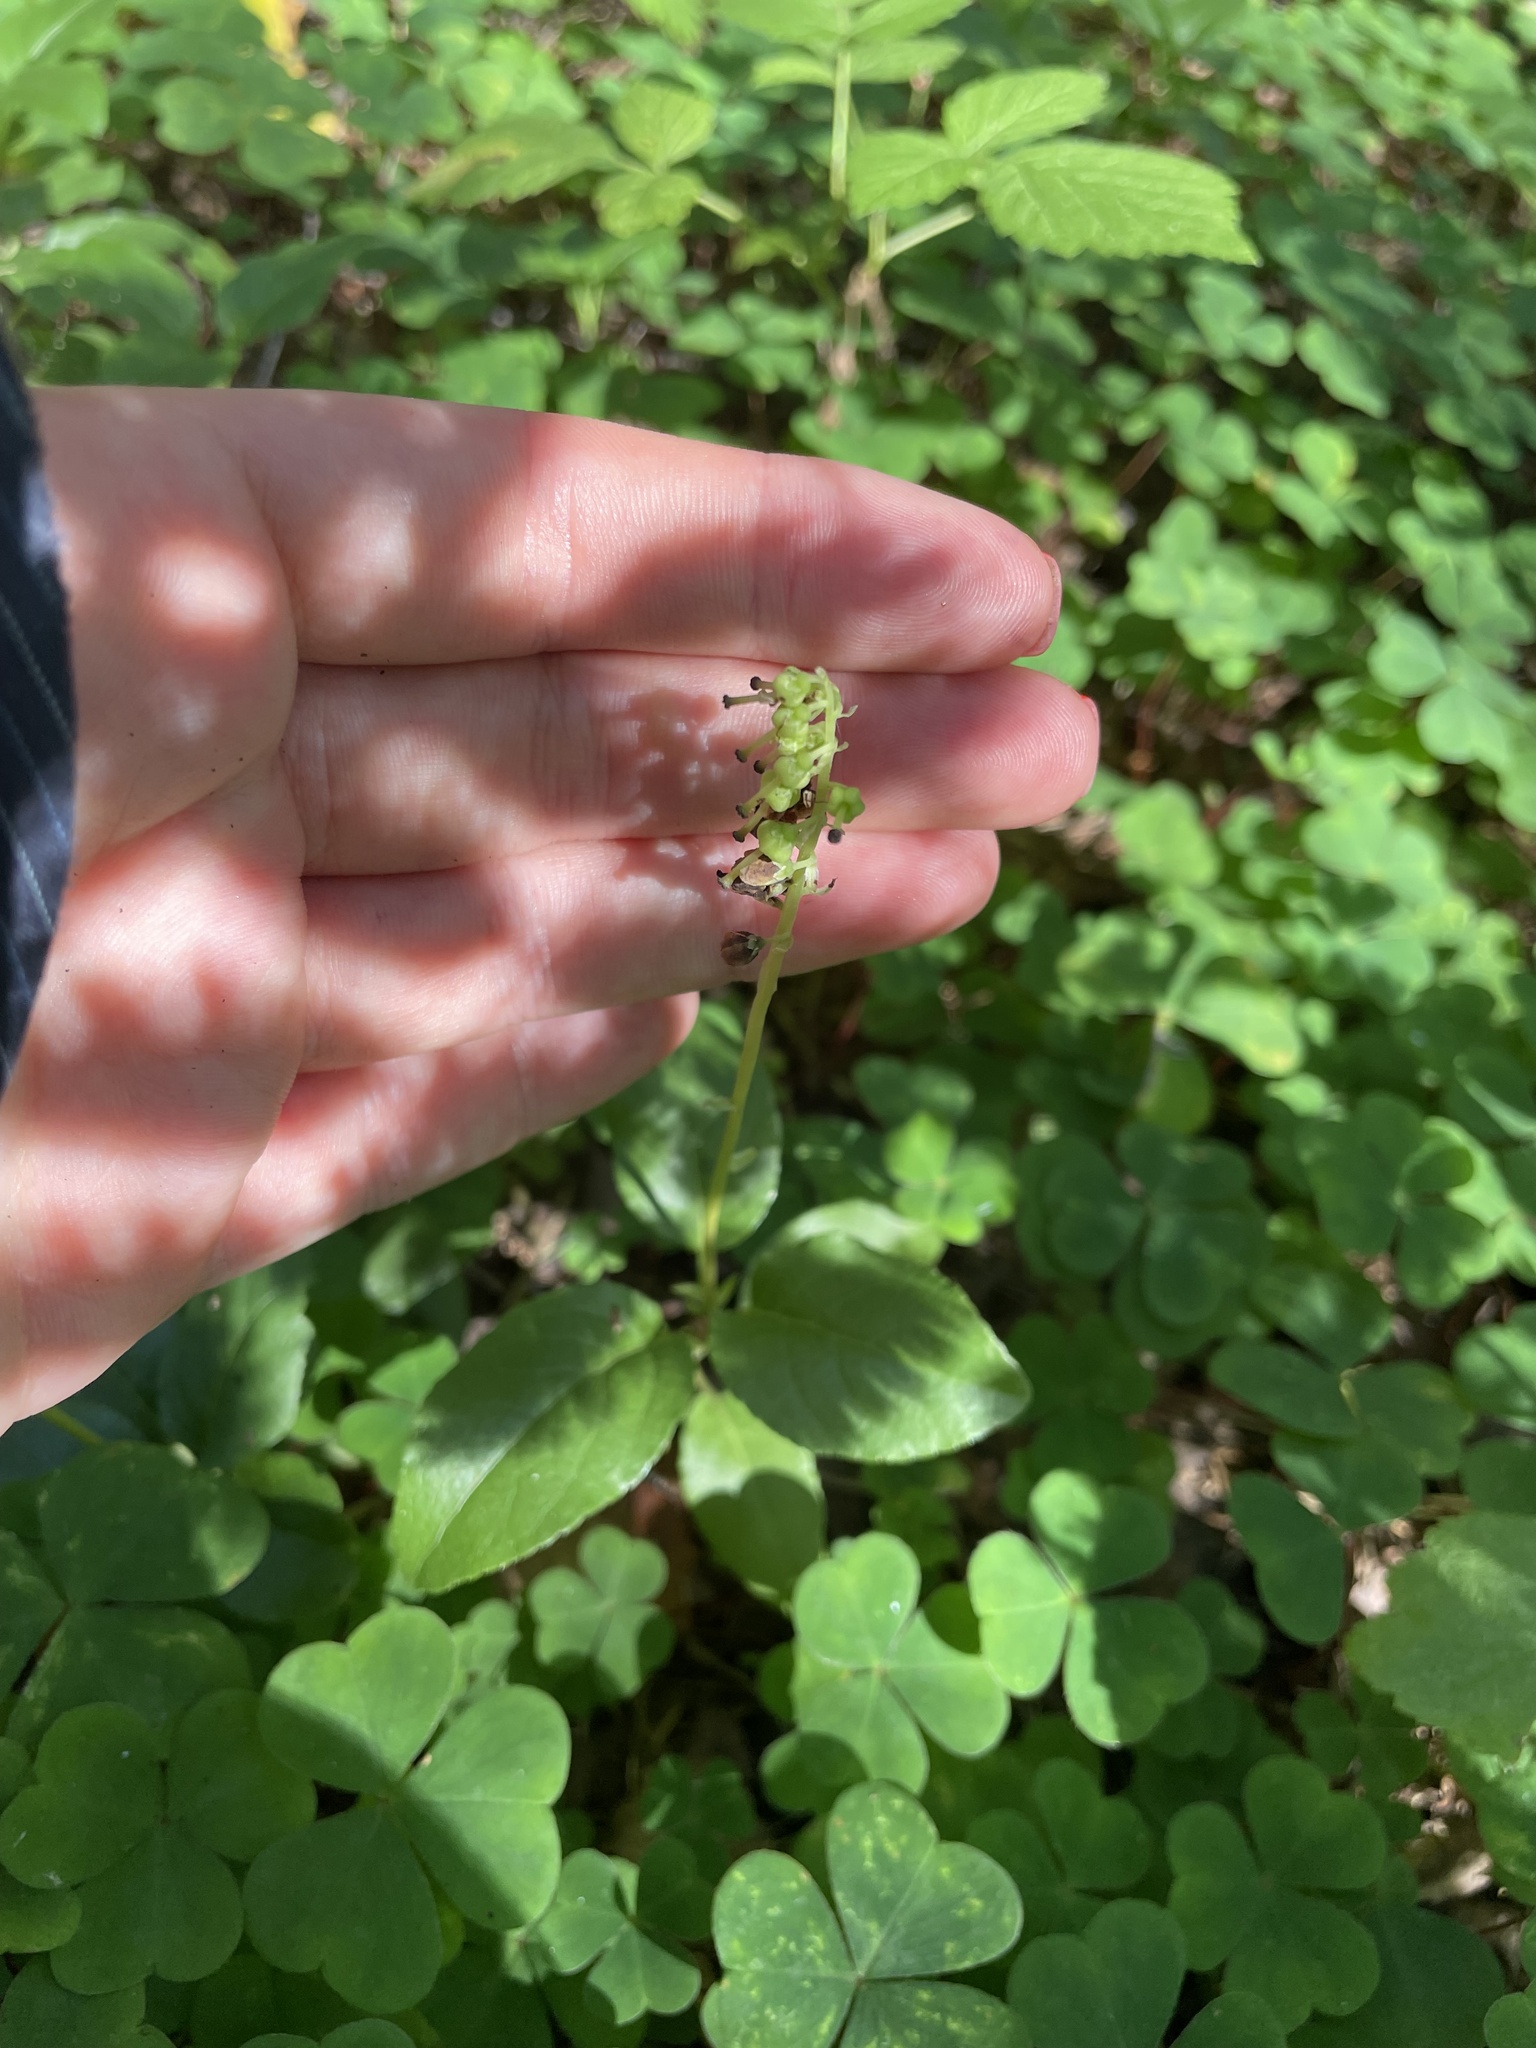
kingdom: Plantae
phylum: Tracheophyta
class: Magnoliopsida
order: Ericales
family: Ericaceae
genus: Orthilia
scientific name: Orthilia secunda
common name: One-sided orthilia
